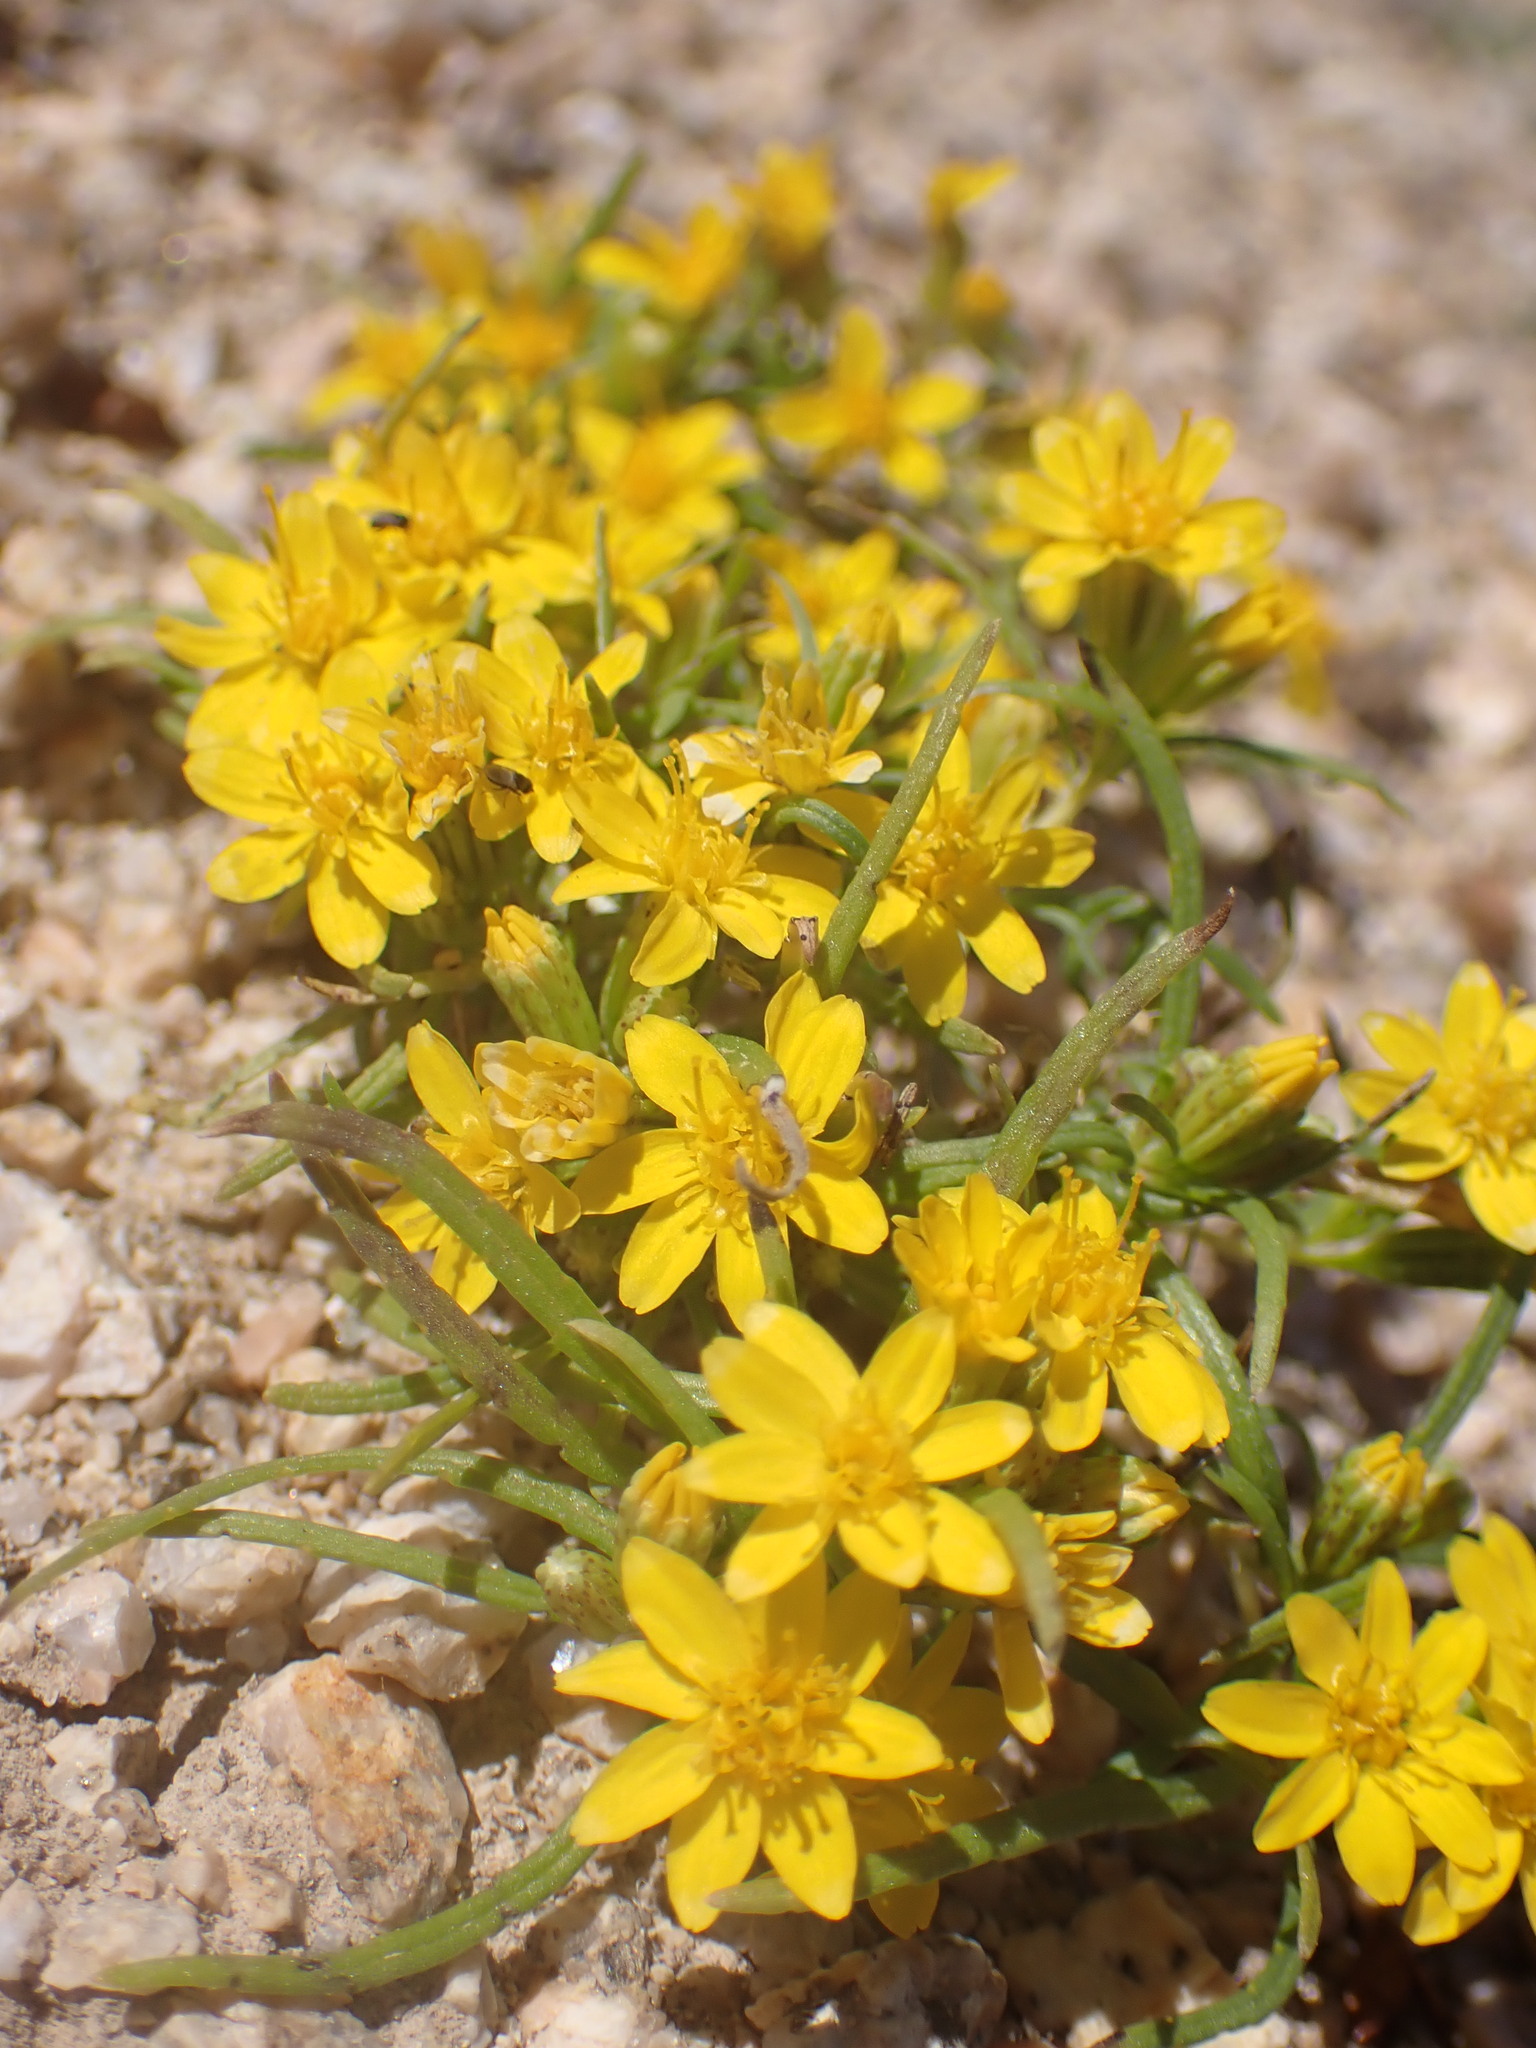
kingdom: Plantae
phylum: Tracheophyta
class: Magnoliopsida
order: Asterales
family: Asteraceae
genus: Pectis
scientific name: Pectis papposa
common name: Many-bristle chinchweed
